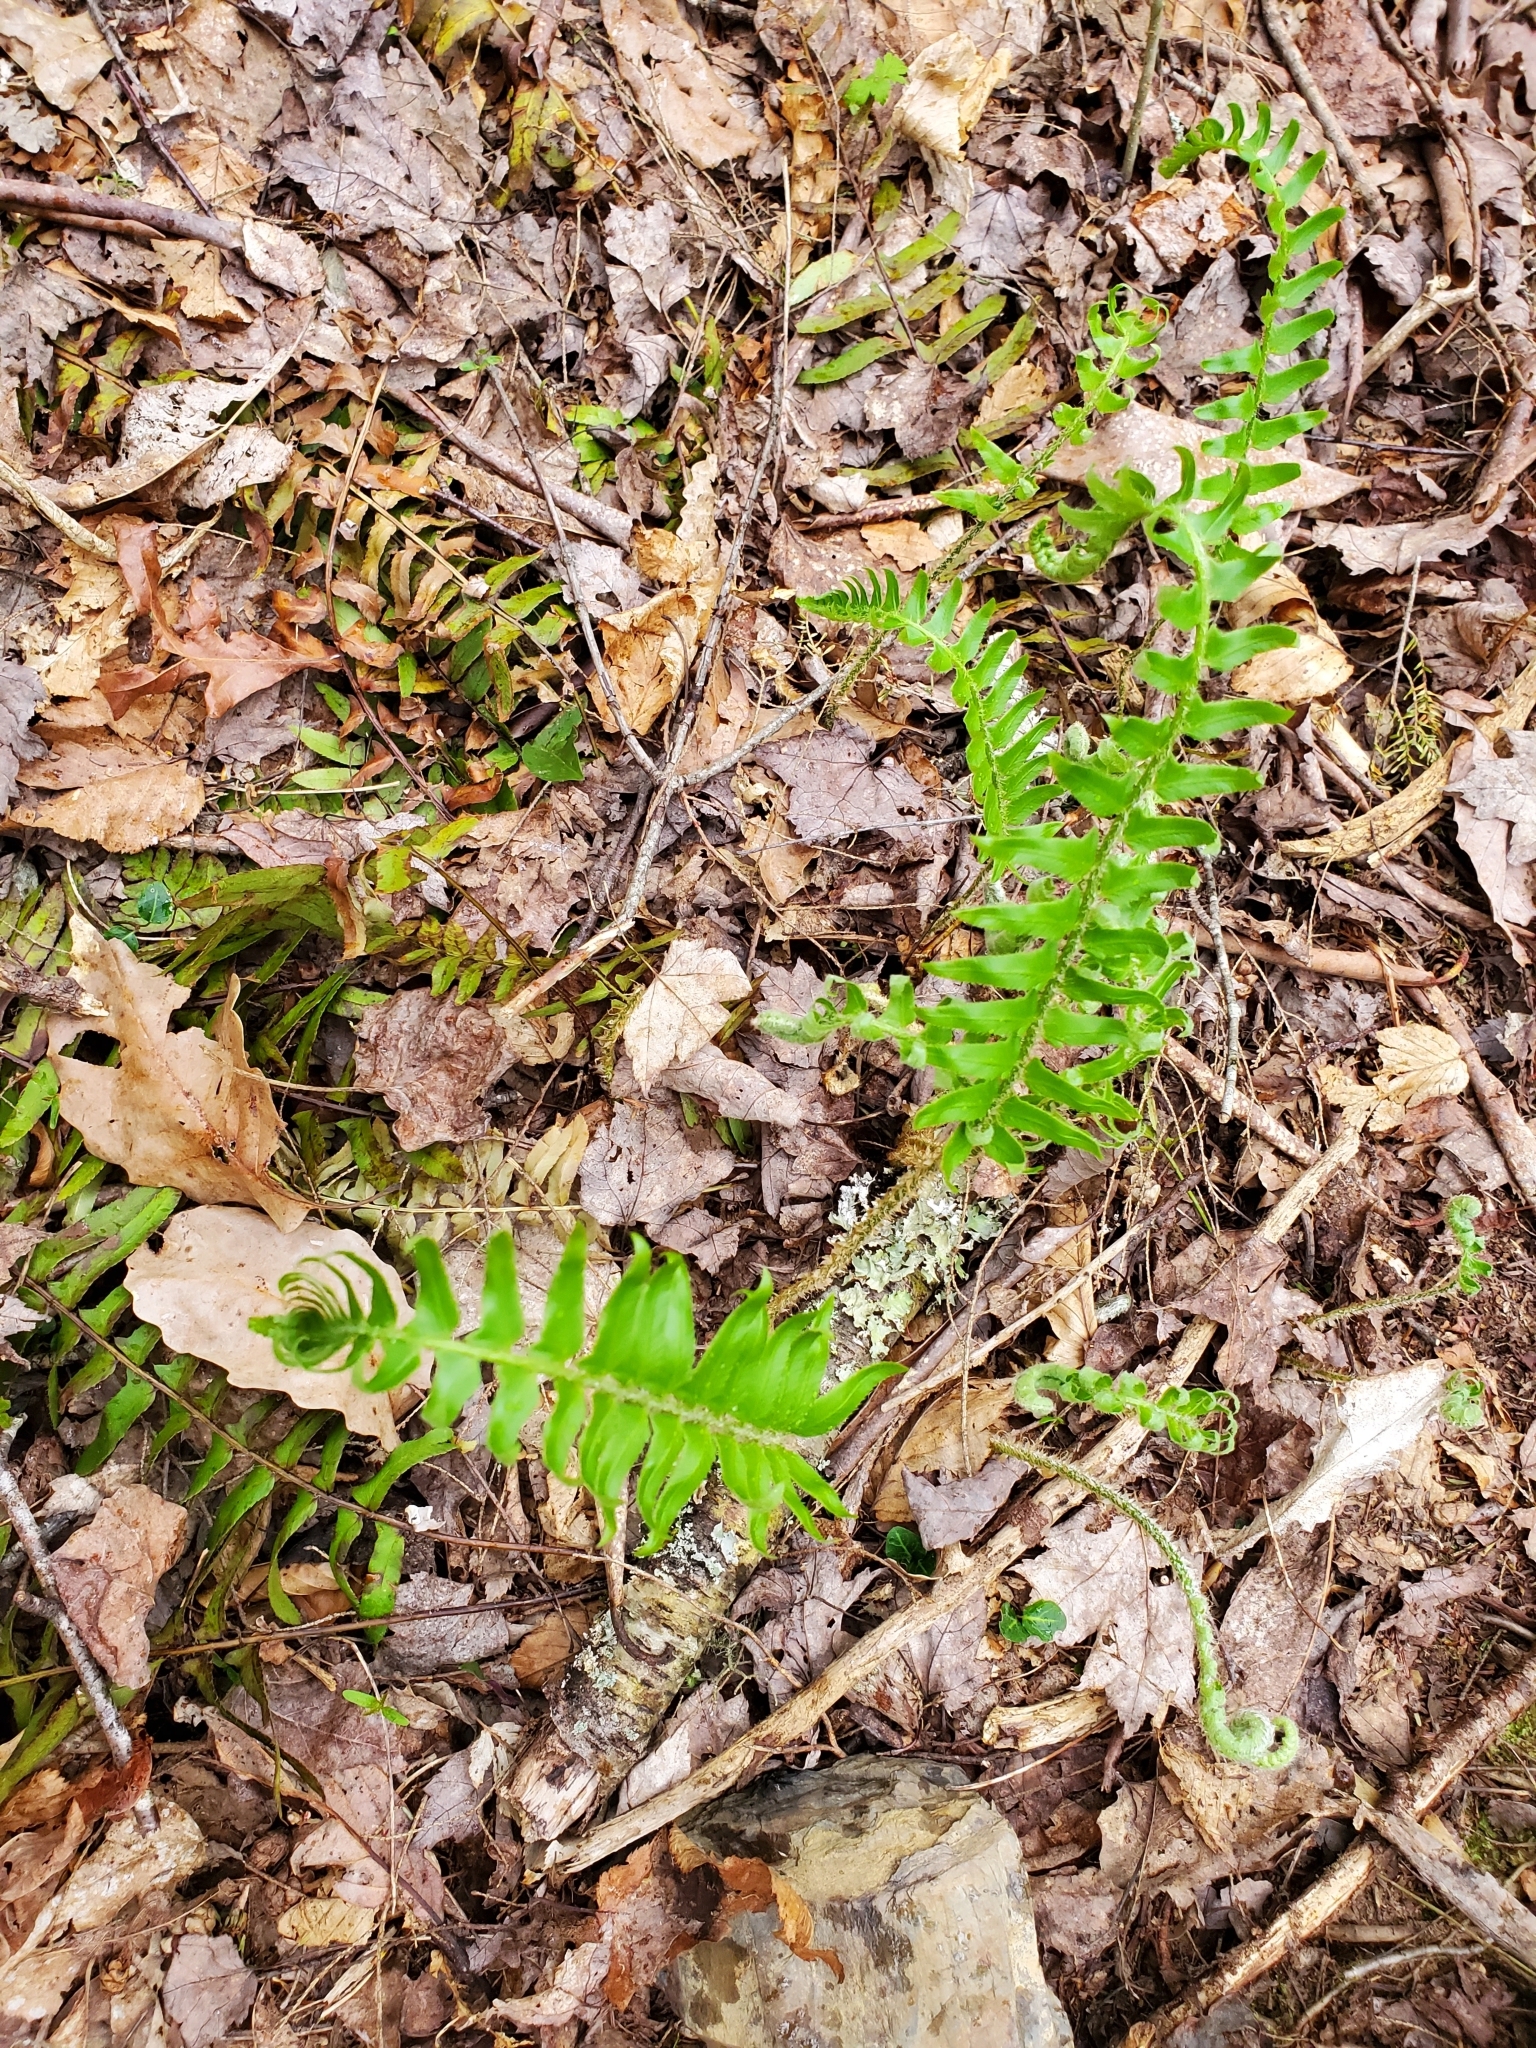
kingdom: Plantae
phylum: Tracheophyta
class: Polypodiopsida
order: Polypodiales
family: Dryopteridaceae
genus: Polystichum
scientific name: Polystichum acrostichoides
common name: Christmas fern
